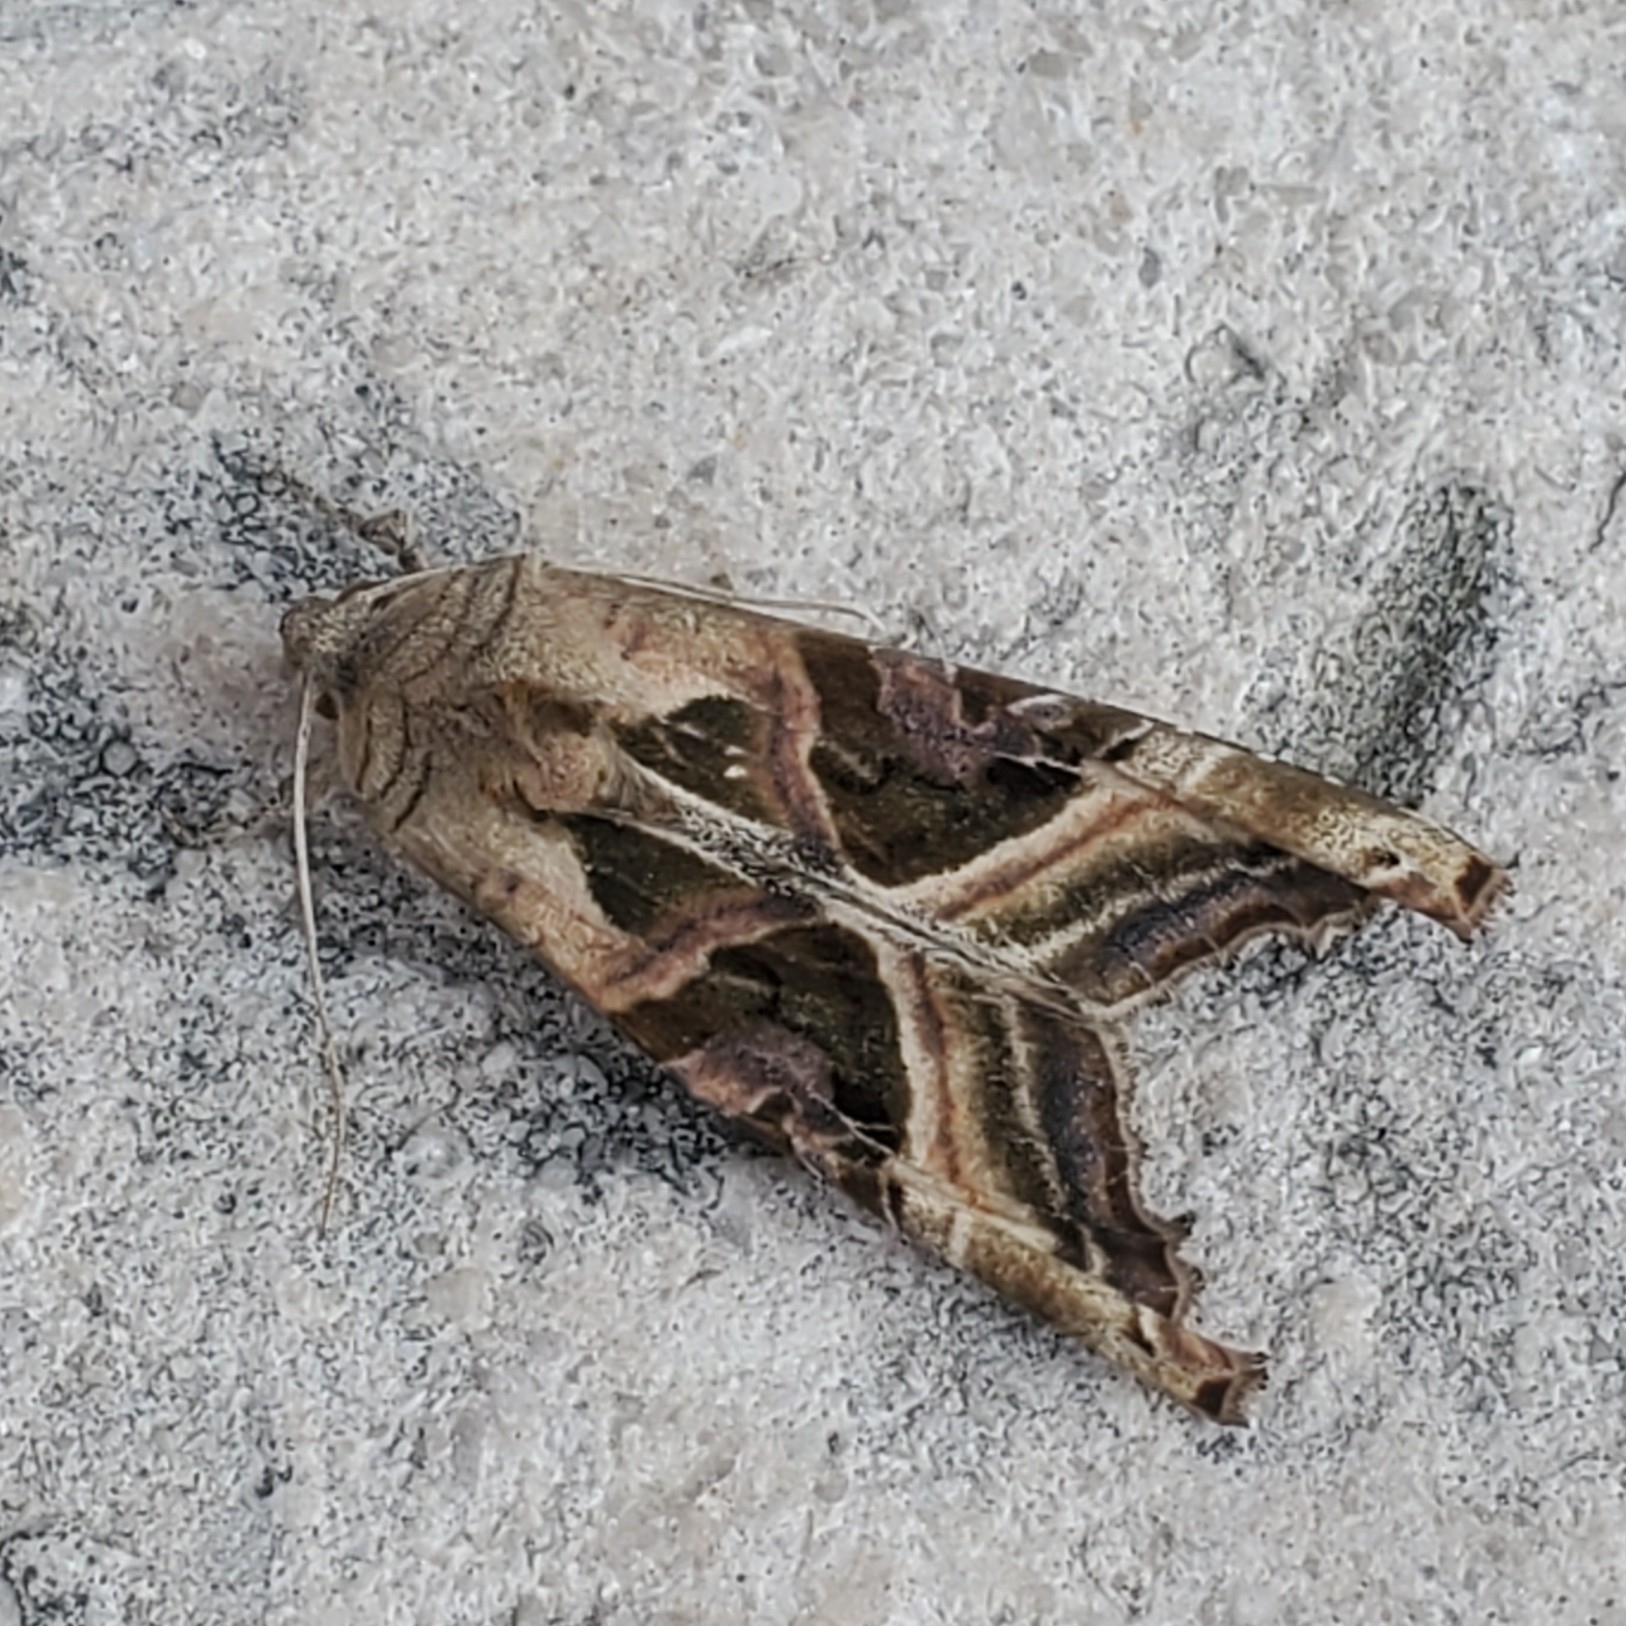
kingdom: Animalia
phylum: Arthropoda
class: Insecta
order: Lepidoptera
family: Noctuidae
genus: Phlogophora
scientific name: Phlogophora iris
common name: Olive angle shades
